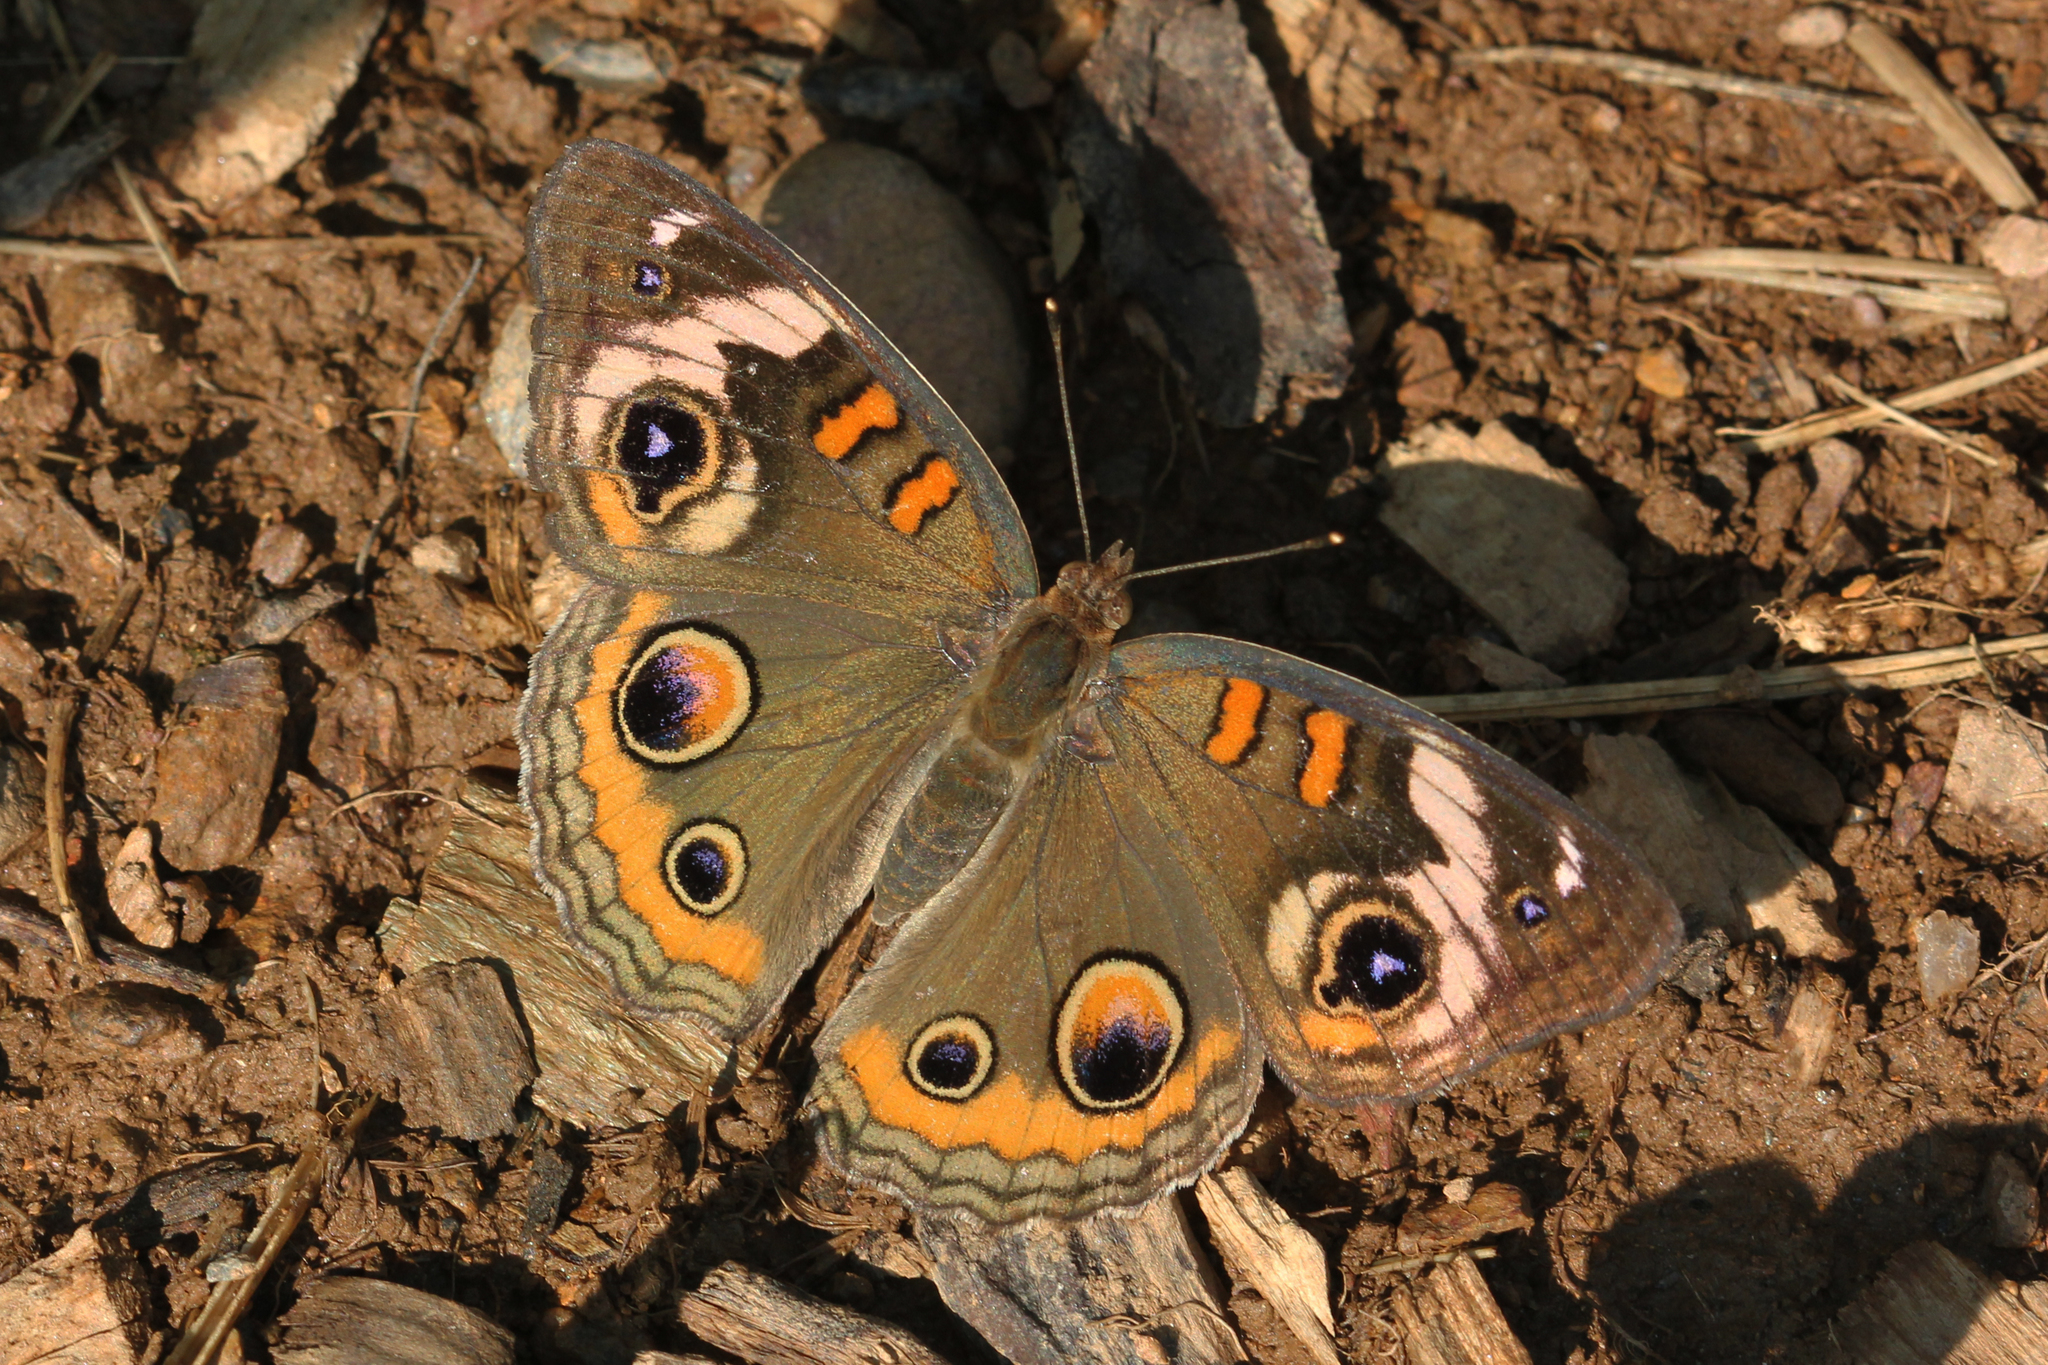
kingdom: Animalia
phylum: Arthropoda
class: Insecta
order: Lepidoptera
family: Nymphalidae
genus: Junonia
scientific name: Junonia coenia
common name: Common buckeye
